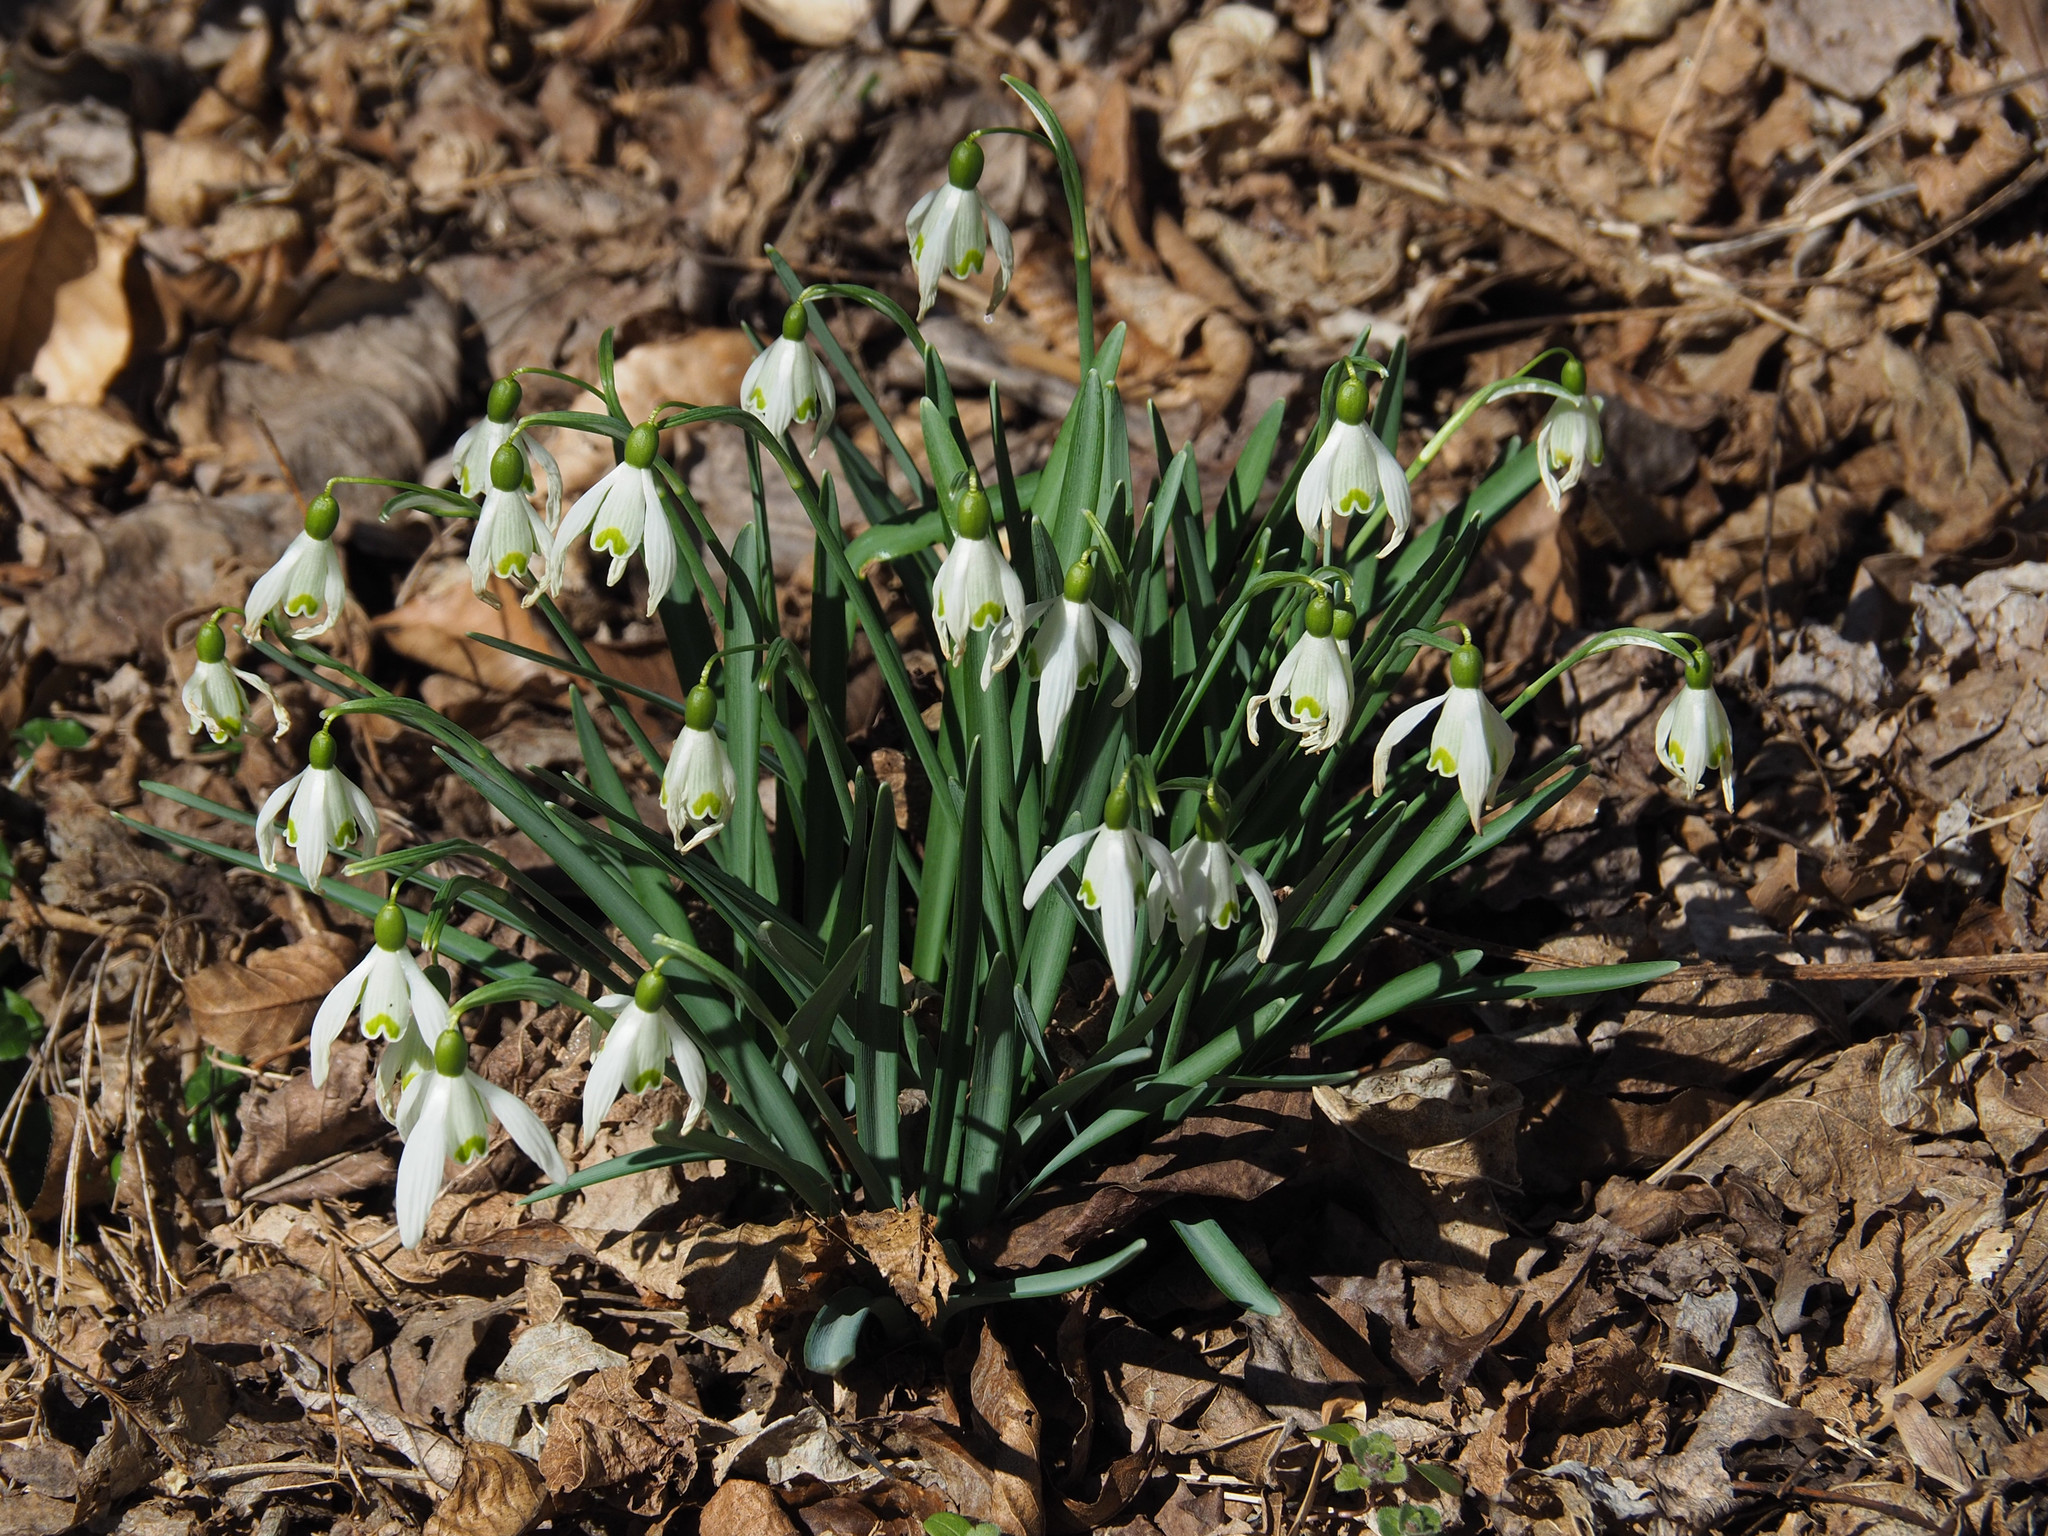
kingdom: Plantae
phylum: Tracheophyta
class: Liliopsida
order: Asparagales
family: Amaryllidaceae
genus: Galanthus
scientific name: Galanthus nivalis
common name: Snowdrop
